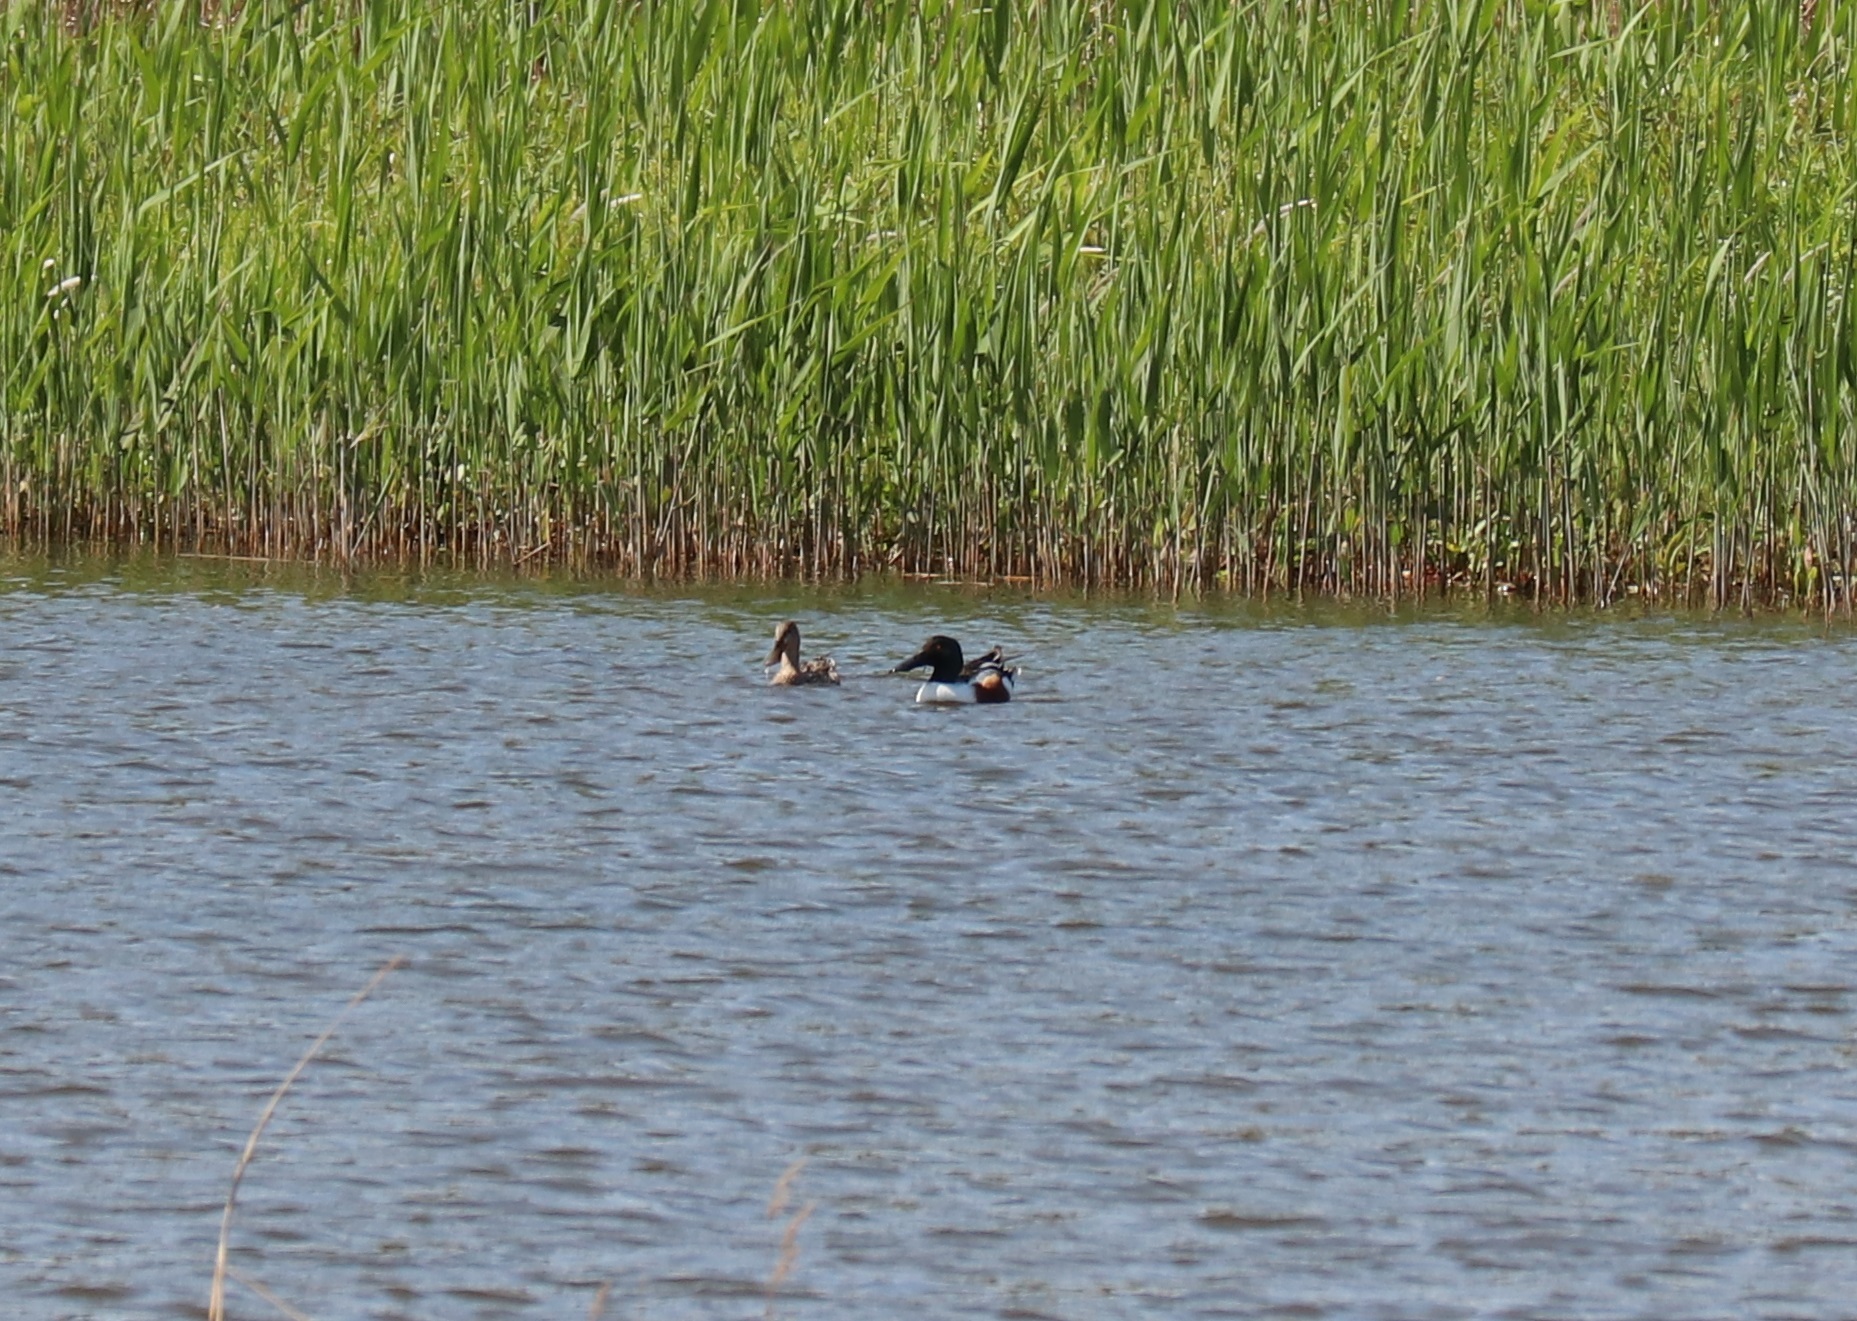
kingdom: Animalia
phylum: Chordata
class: Aves
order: Anseriformes
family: Anatidae
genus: Spatula
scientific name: Spatula clypeata
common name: Northern shoveler
